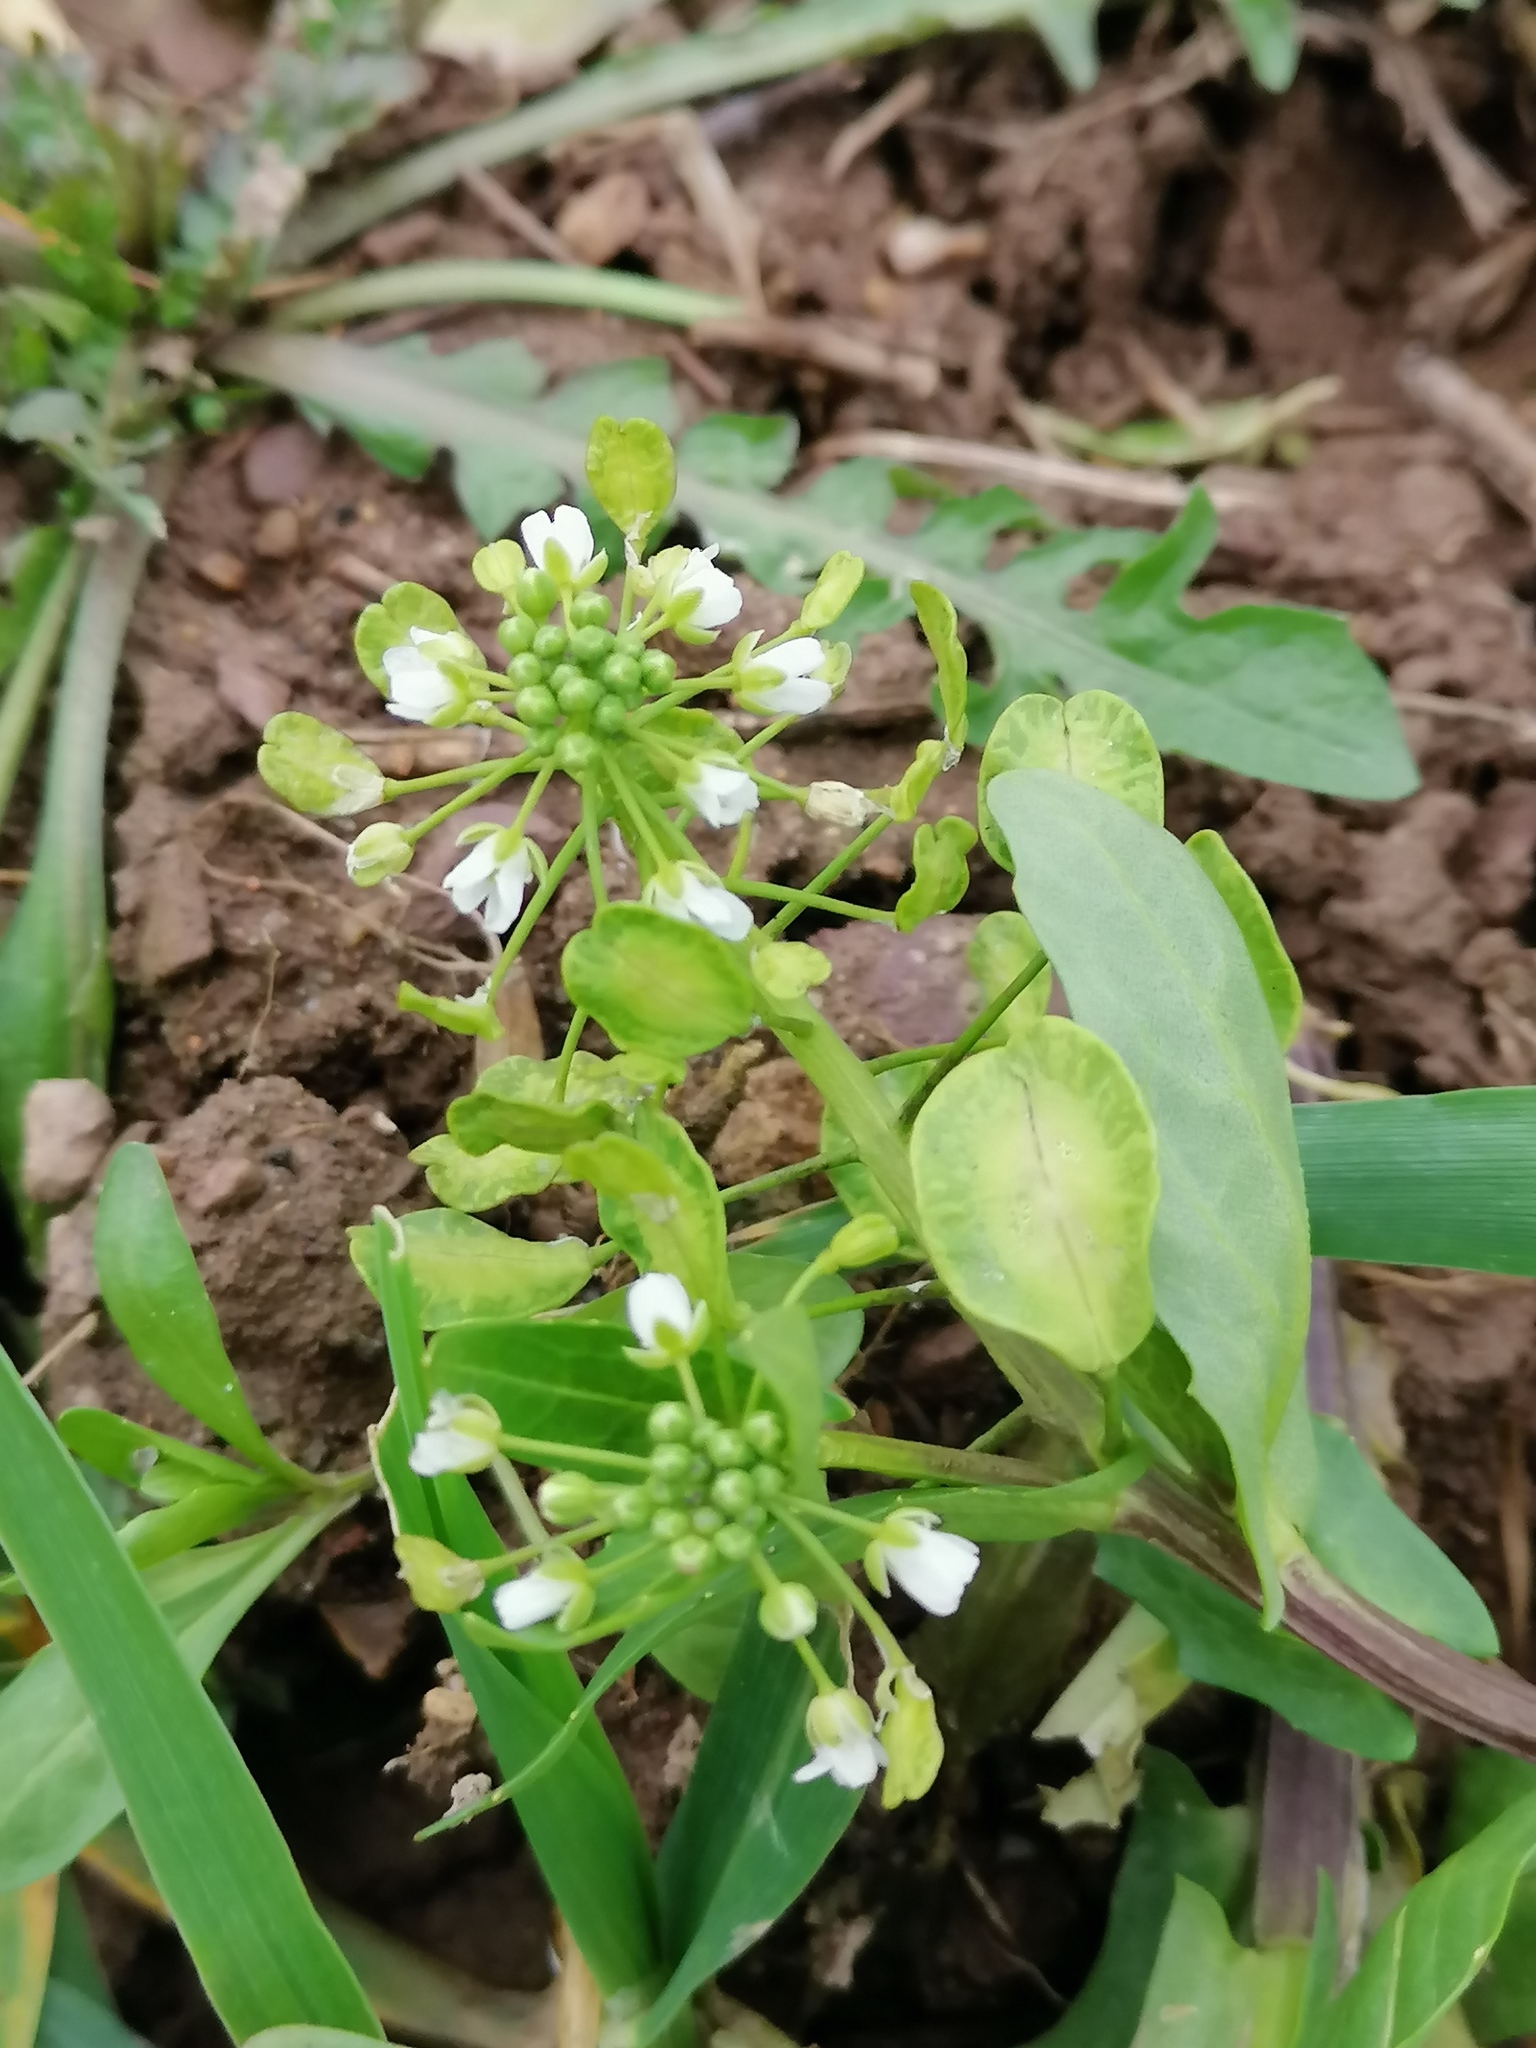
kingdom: Plantae
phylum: Tracheophyta
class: Magnoliopsida
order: Brassicales
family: Brassicaceae
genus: Thlaspi
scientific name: Thlaspi arvense
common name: Field pennycress
